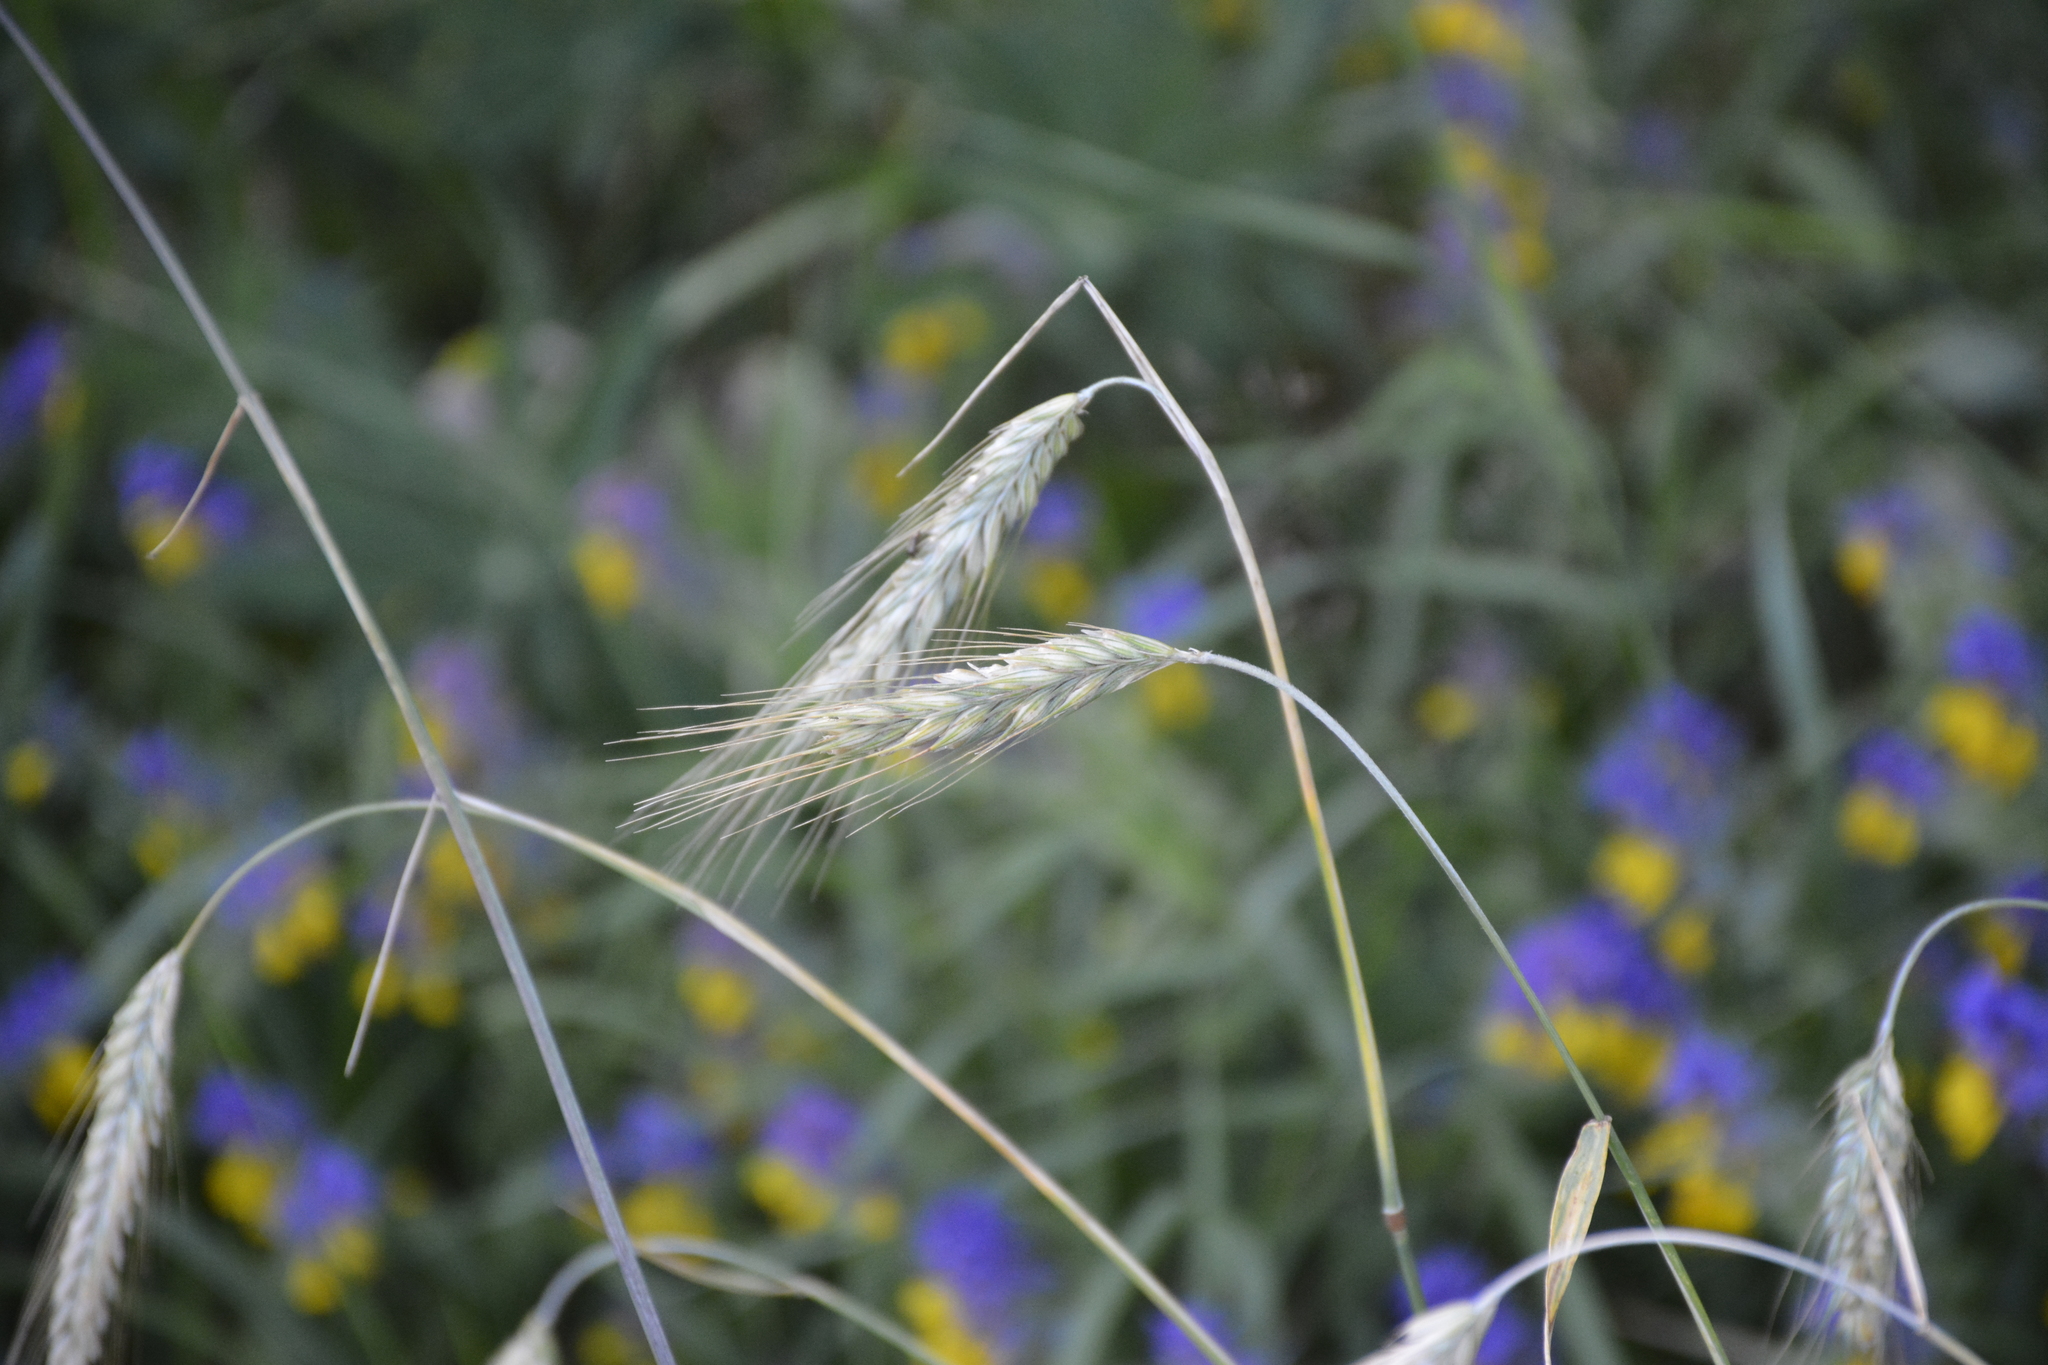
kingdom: Plantae
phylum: Tracheophyta
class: Liliopsida
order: Poales
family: Poaceae
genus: Secale
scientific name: Secale cereale
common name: Rye
